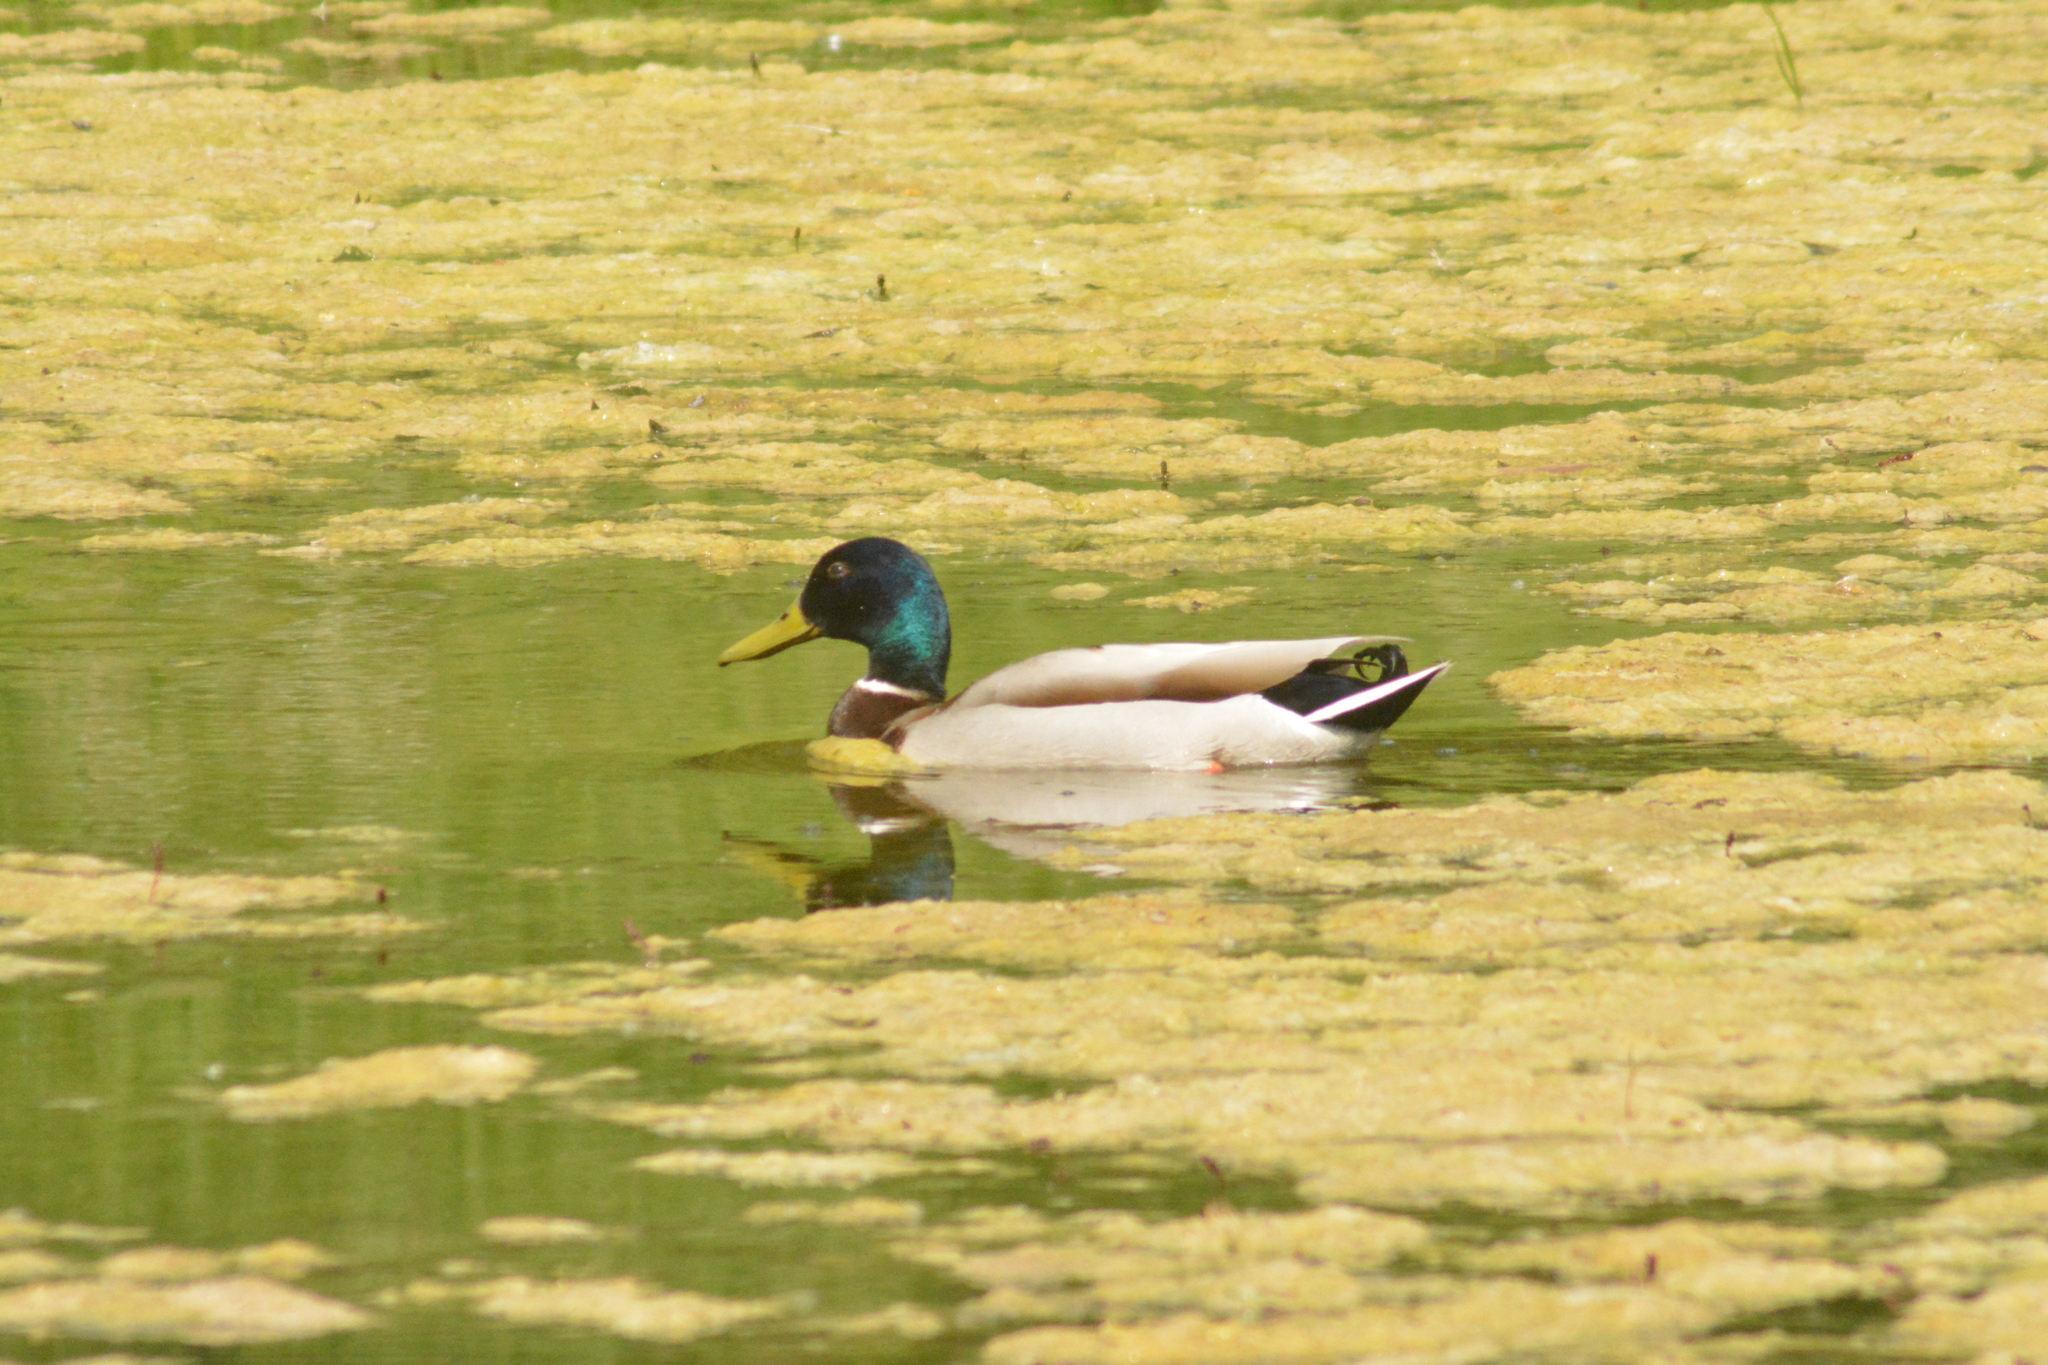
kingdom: Animalia
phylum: Chordata
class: Aves
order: Anseriformes
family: Anatidae
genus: Anas
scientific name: Anas platyrhynchos
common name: Mallard
